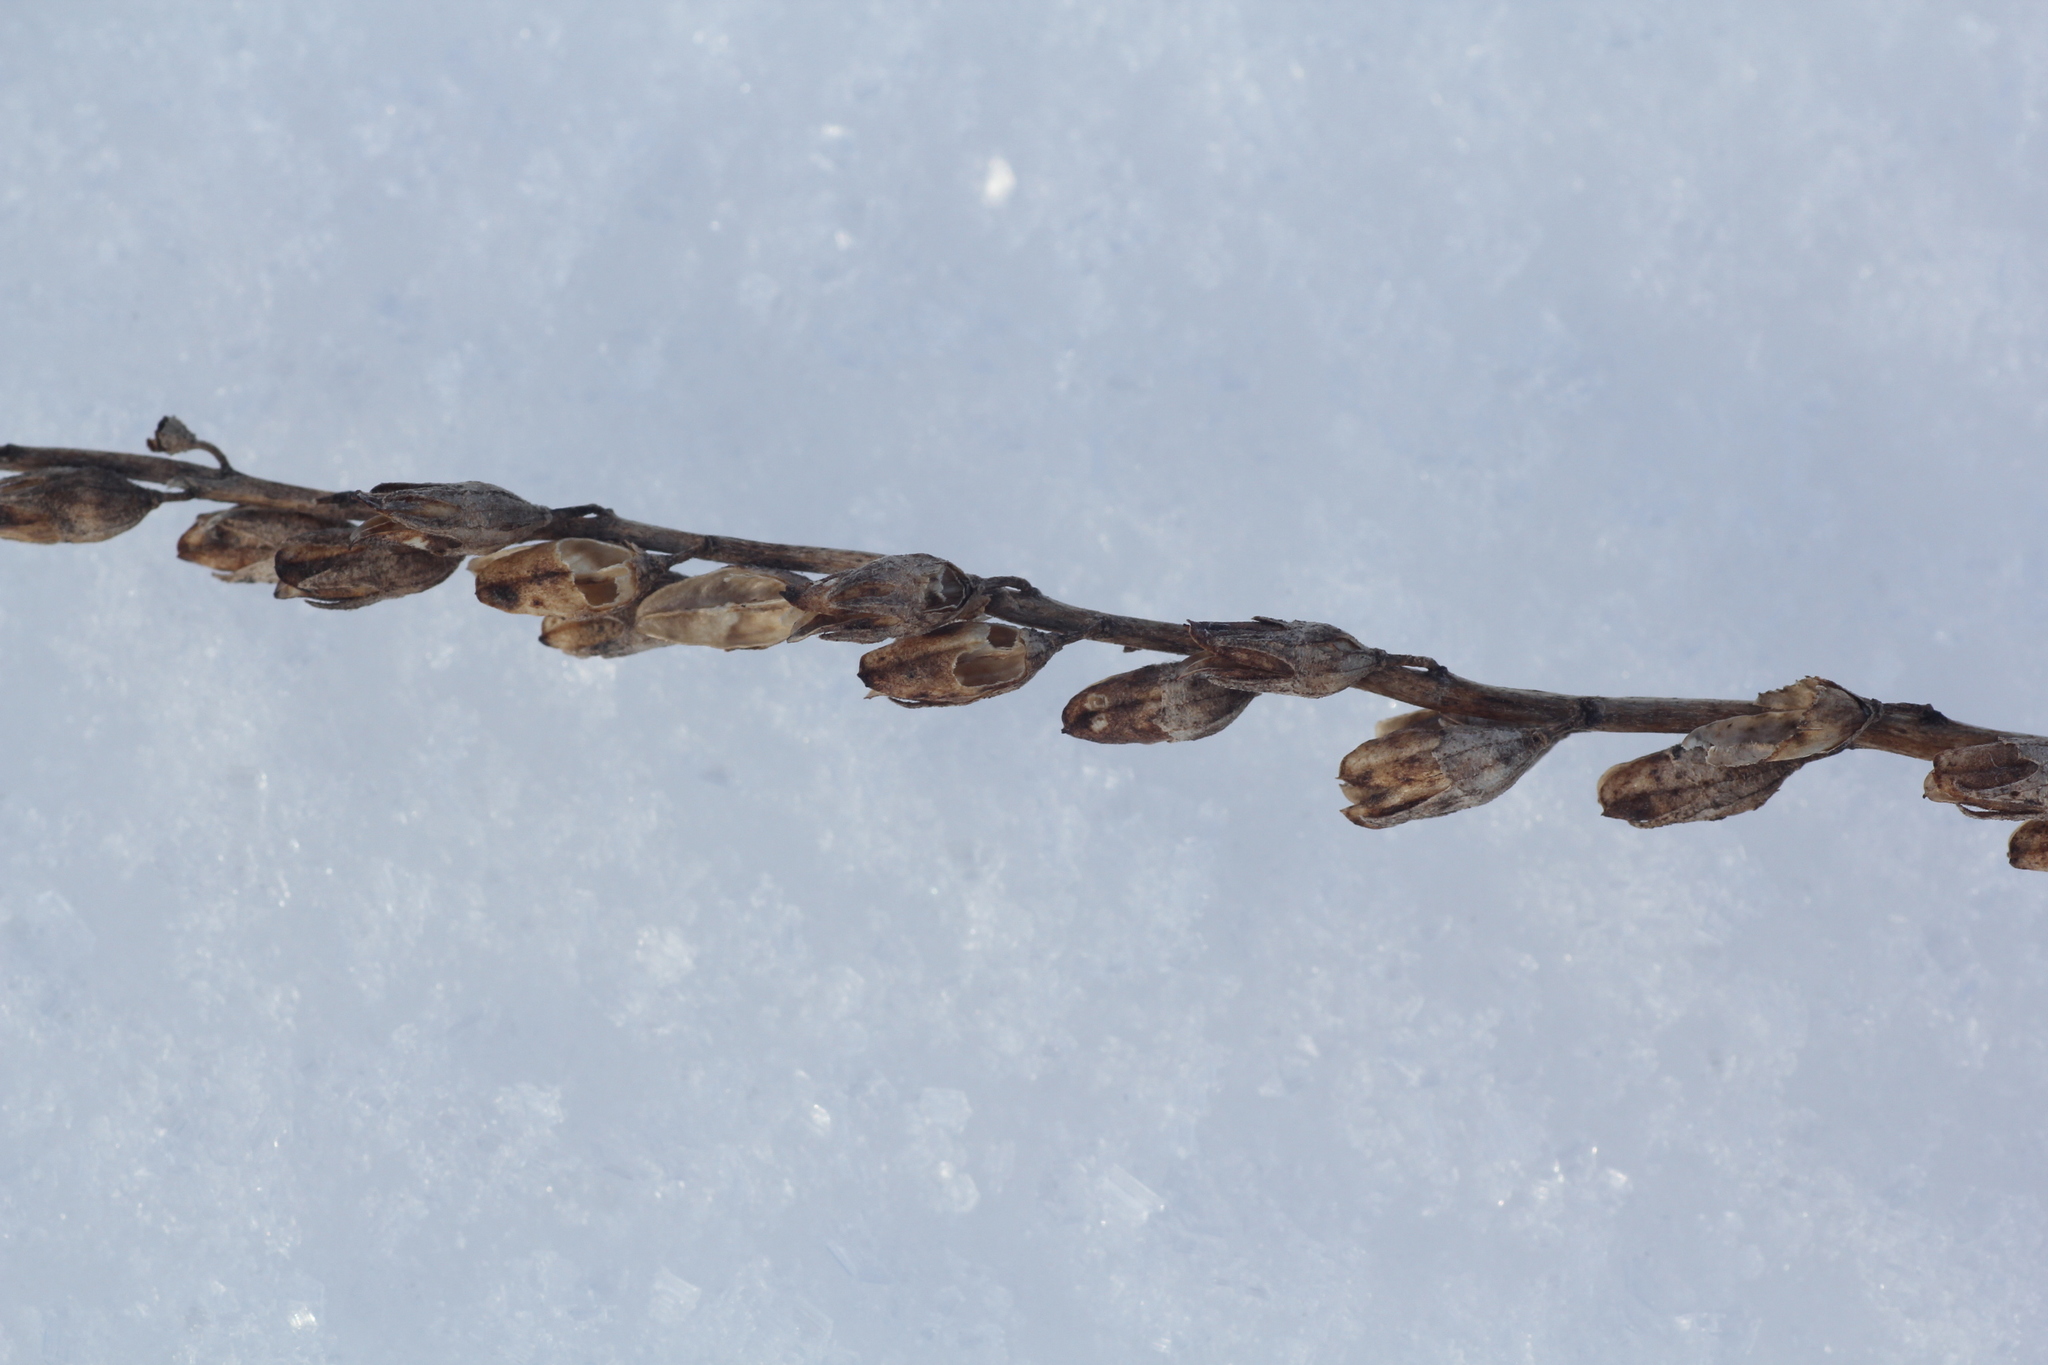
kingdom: Plantae
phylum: Tracheophyta
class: Magnoliopsida
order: Lamiales
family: Orobanchaceae
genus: Odontites
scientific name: Odontites vulgaris
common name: Broomrape
